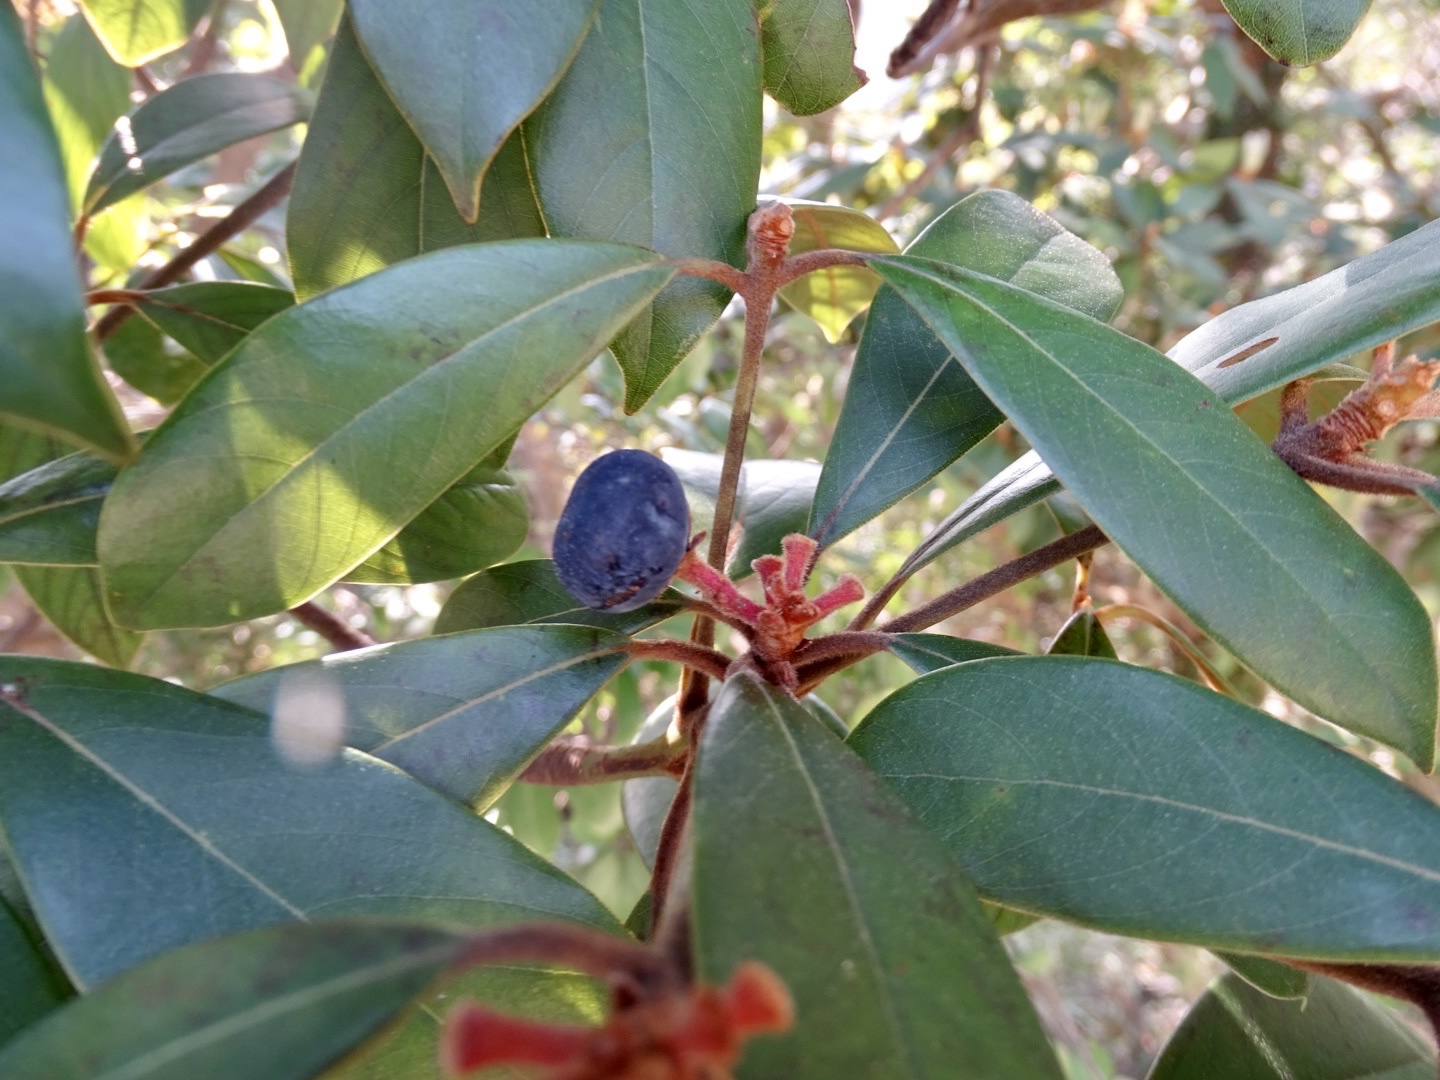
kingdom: Plantae
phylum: Tracheophyta
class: Magnoliopsida
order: Laurales
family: Lauraceae
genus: Machilus
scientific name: Machilus velutina
